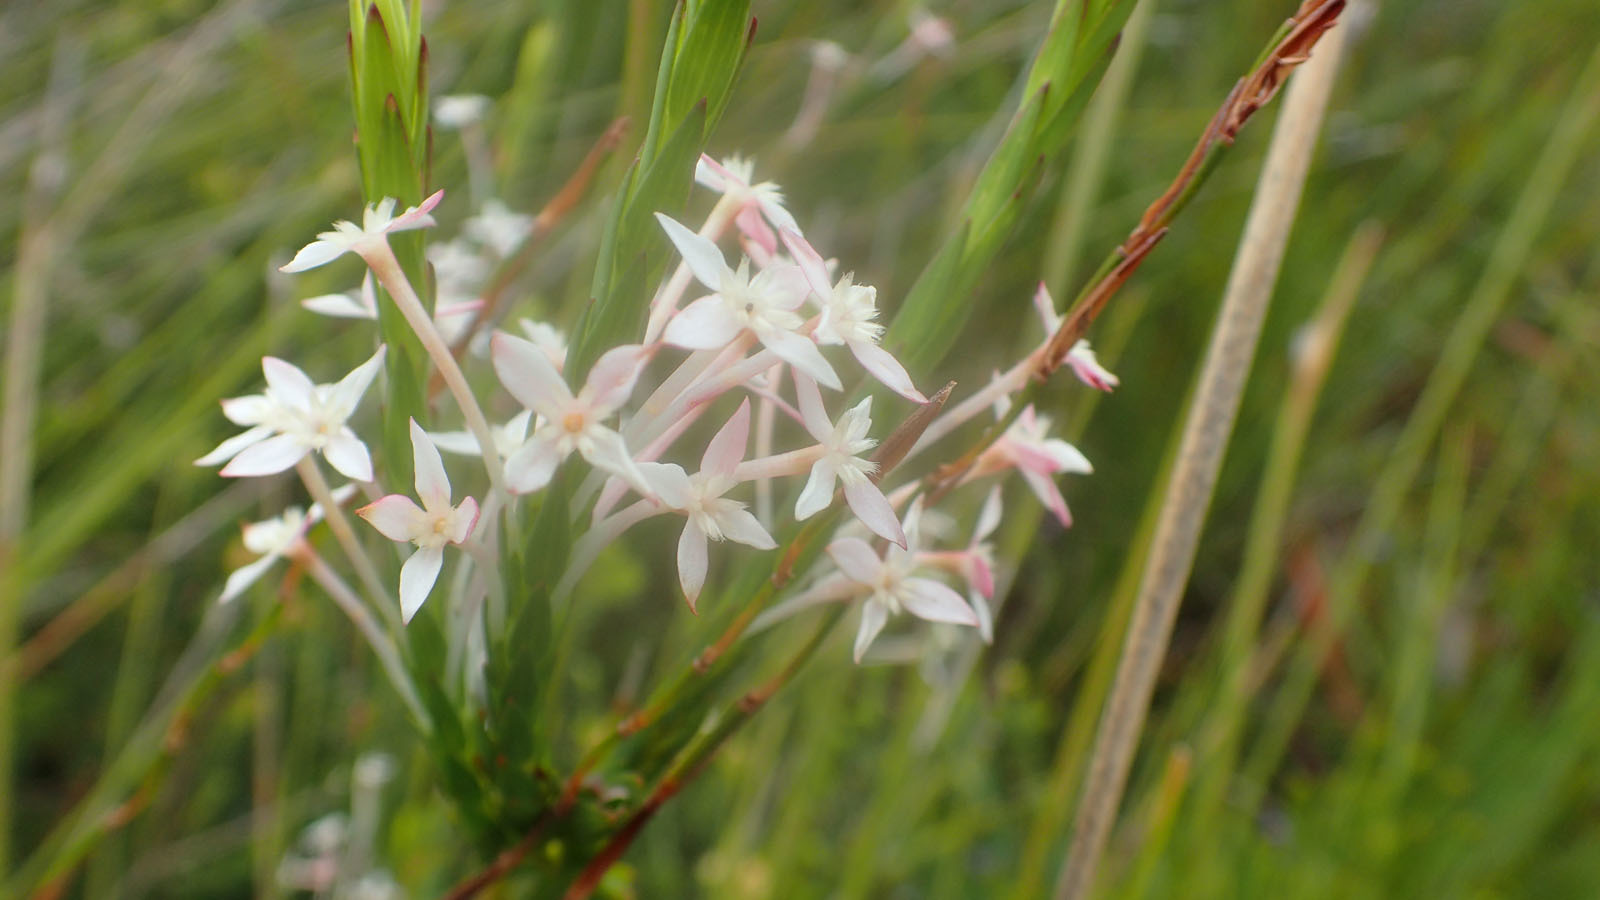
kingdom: Plantae
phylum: Tracheophyta
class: Magnoliopsida
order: Malvales
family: Thymelaeaceae
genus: Struthiola
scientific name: Struthiola myrsinites
